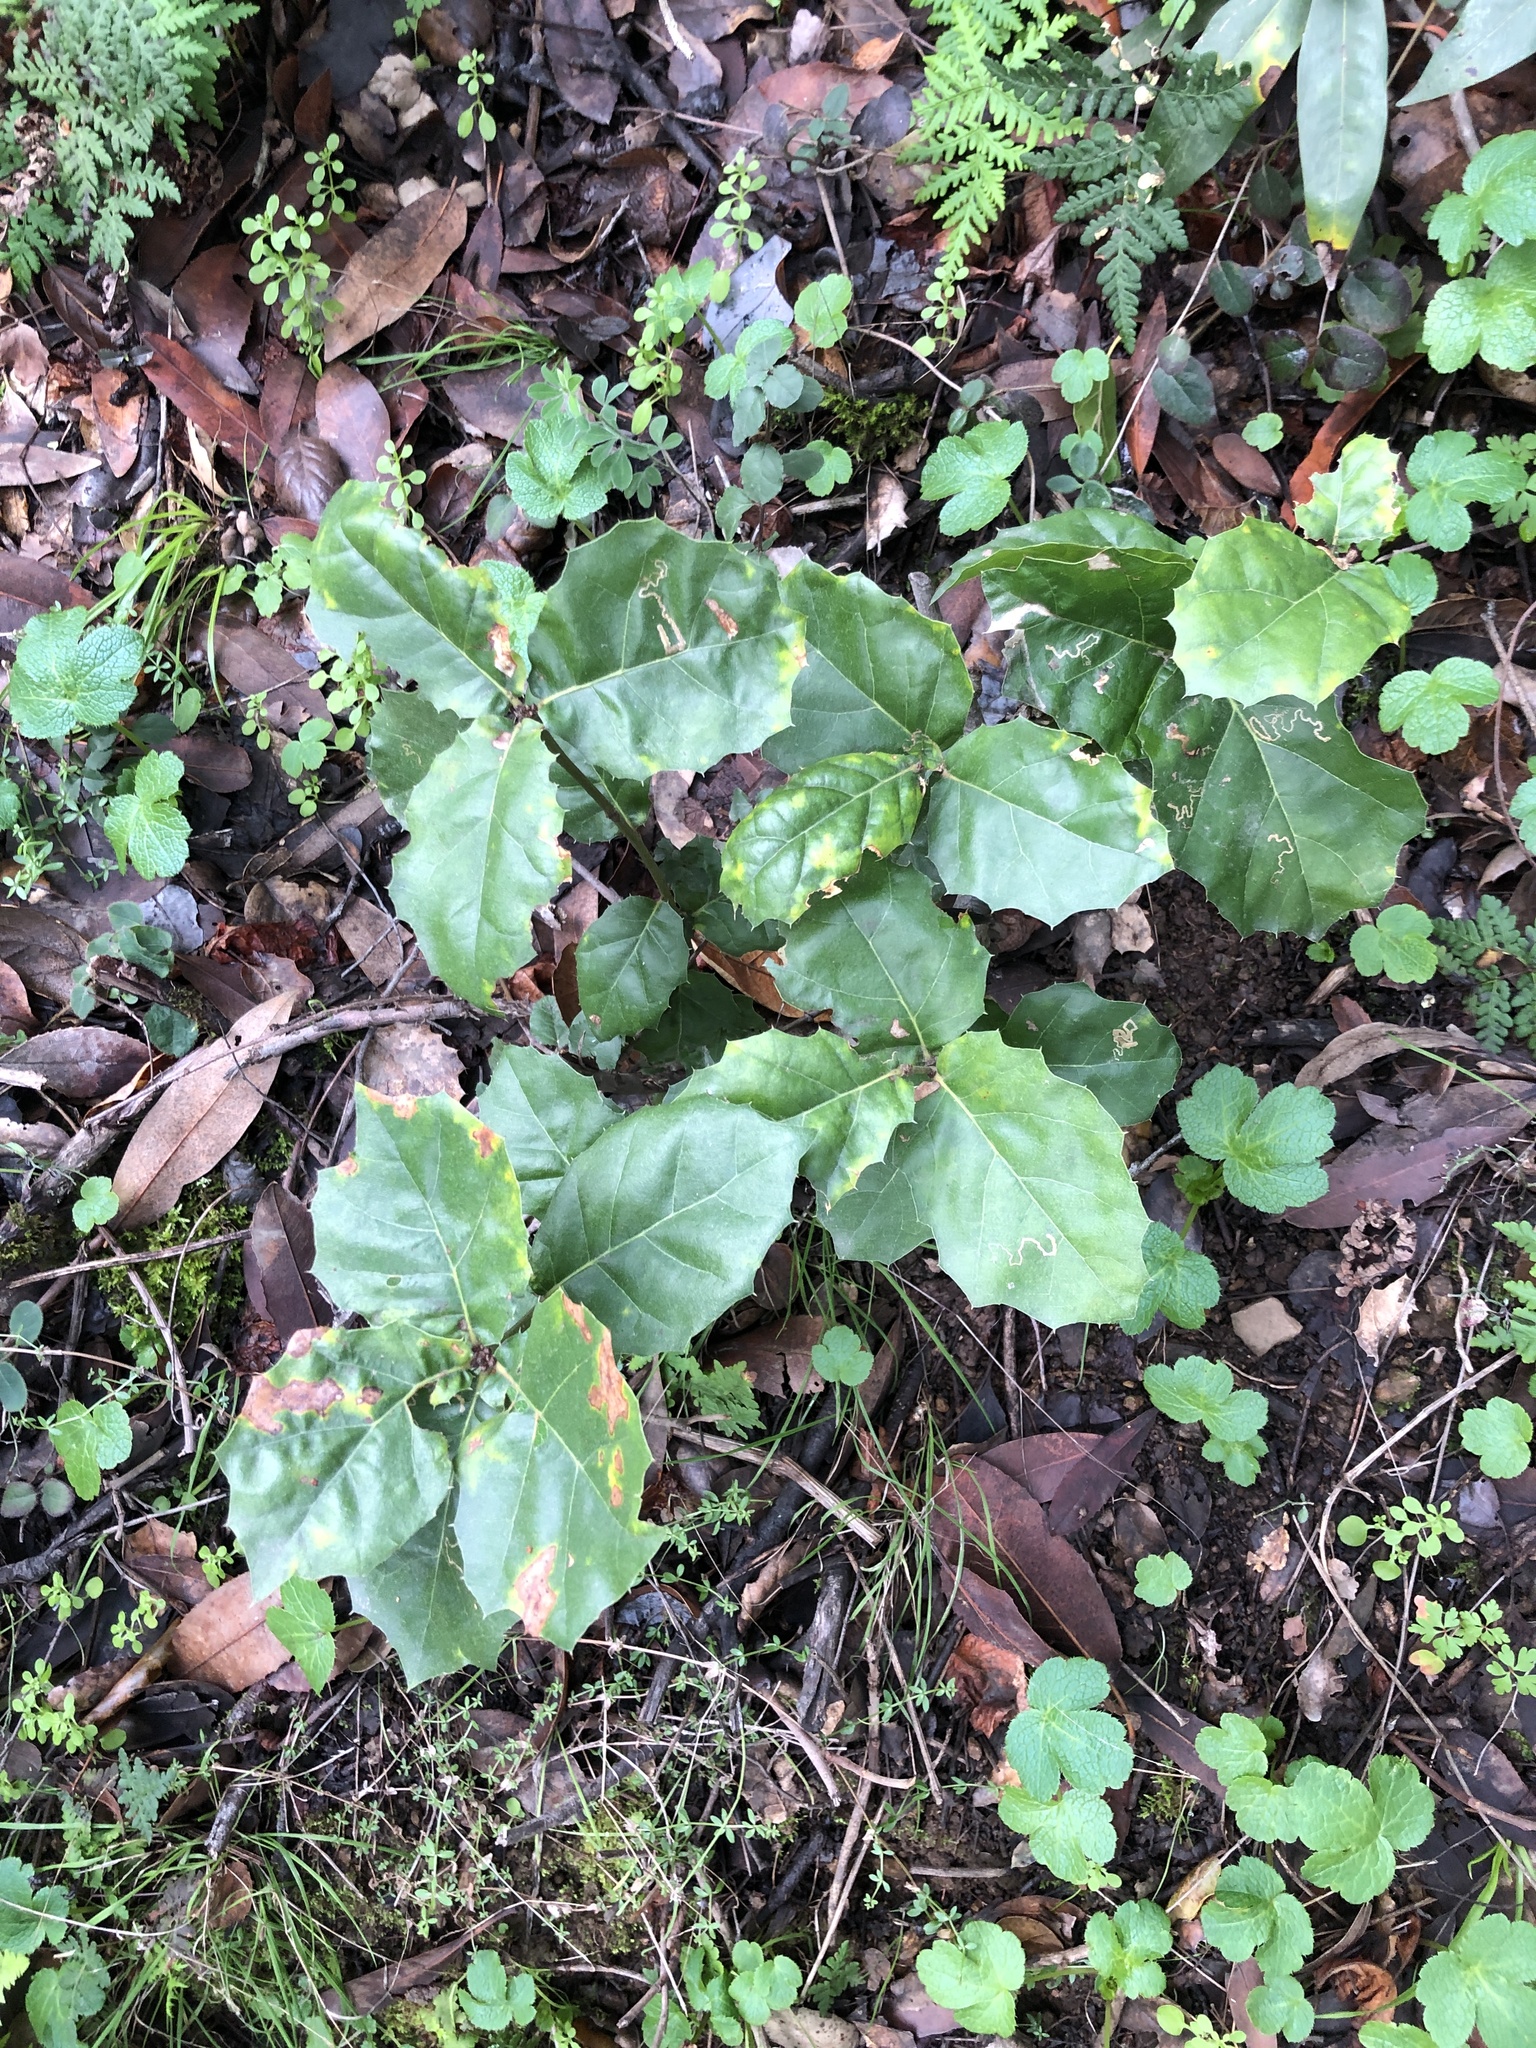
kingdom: Plantae
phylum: Tracheophyta
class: Magnoliopsida
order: Fagales
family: Fagaceae
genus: Quercus
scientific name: Quercus agrifolia
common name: California live oak
